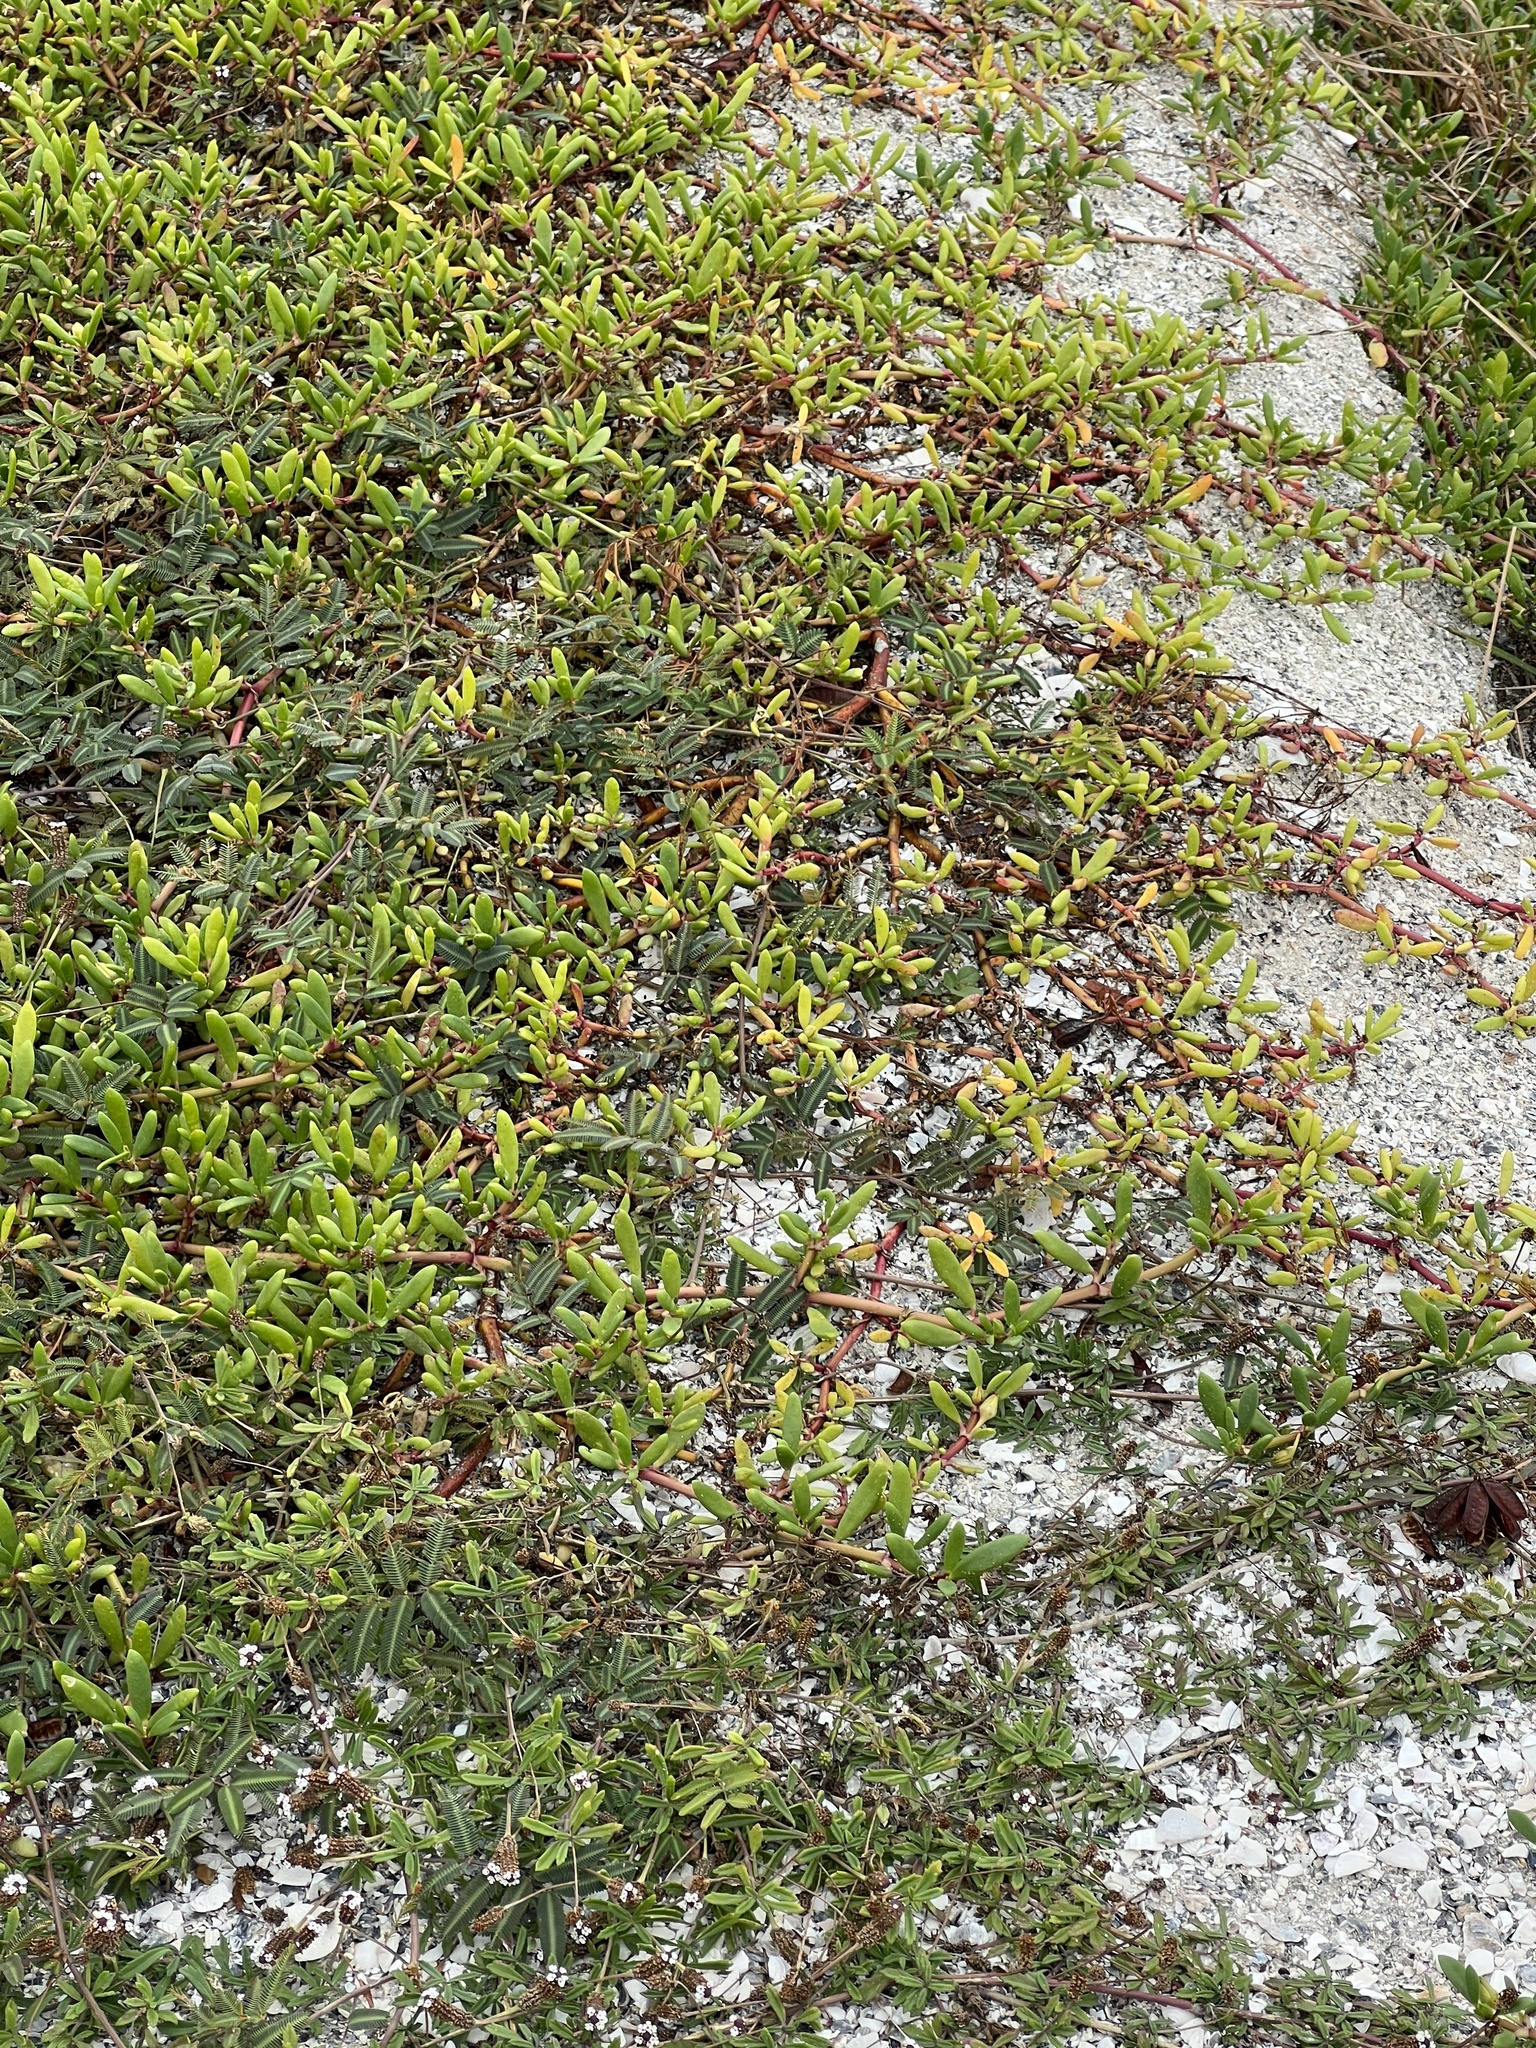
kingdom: Plantae
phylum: Tracheophyta
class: Magnoliopsida
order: Caryophyllales
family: Aizoaceae
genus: Sesuvium
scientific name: Sesuvium portulacastrum
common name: Sea-purslane
